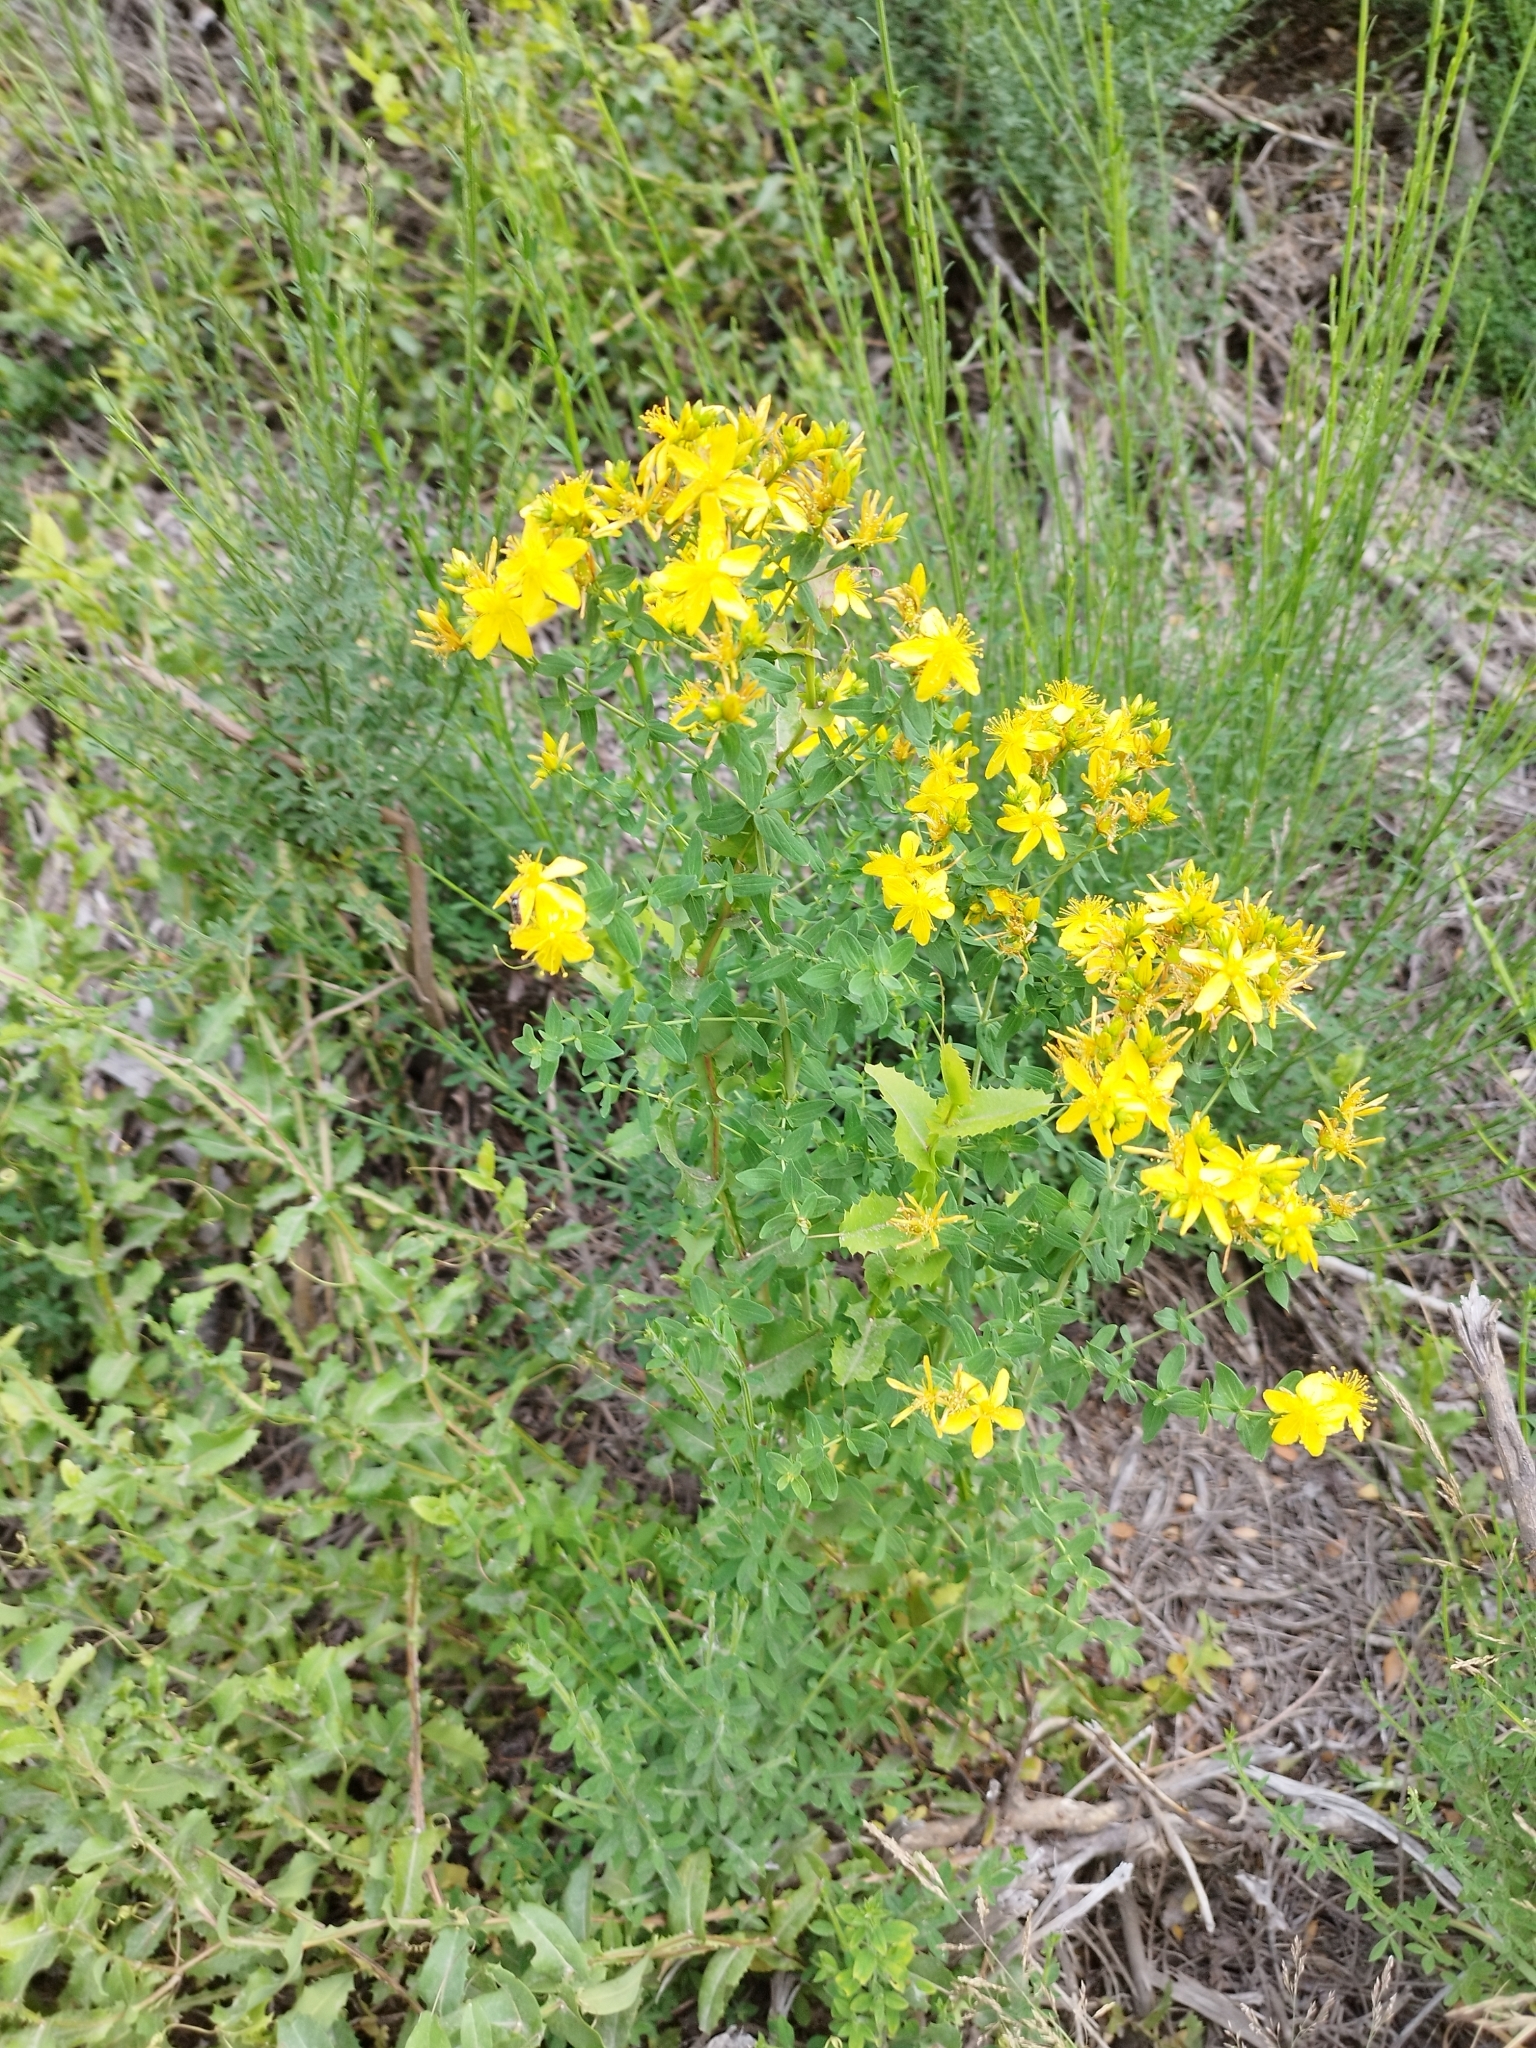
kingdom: Plantae
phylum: Tracheophyta
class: Magnoliopsida
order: Malpighiales
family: Hypericaceae
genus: Hypericum
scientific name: Hypericum perforatum
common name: Common st. johnswort
